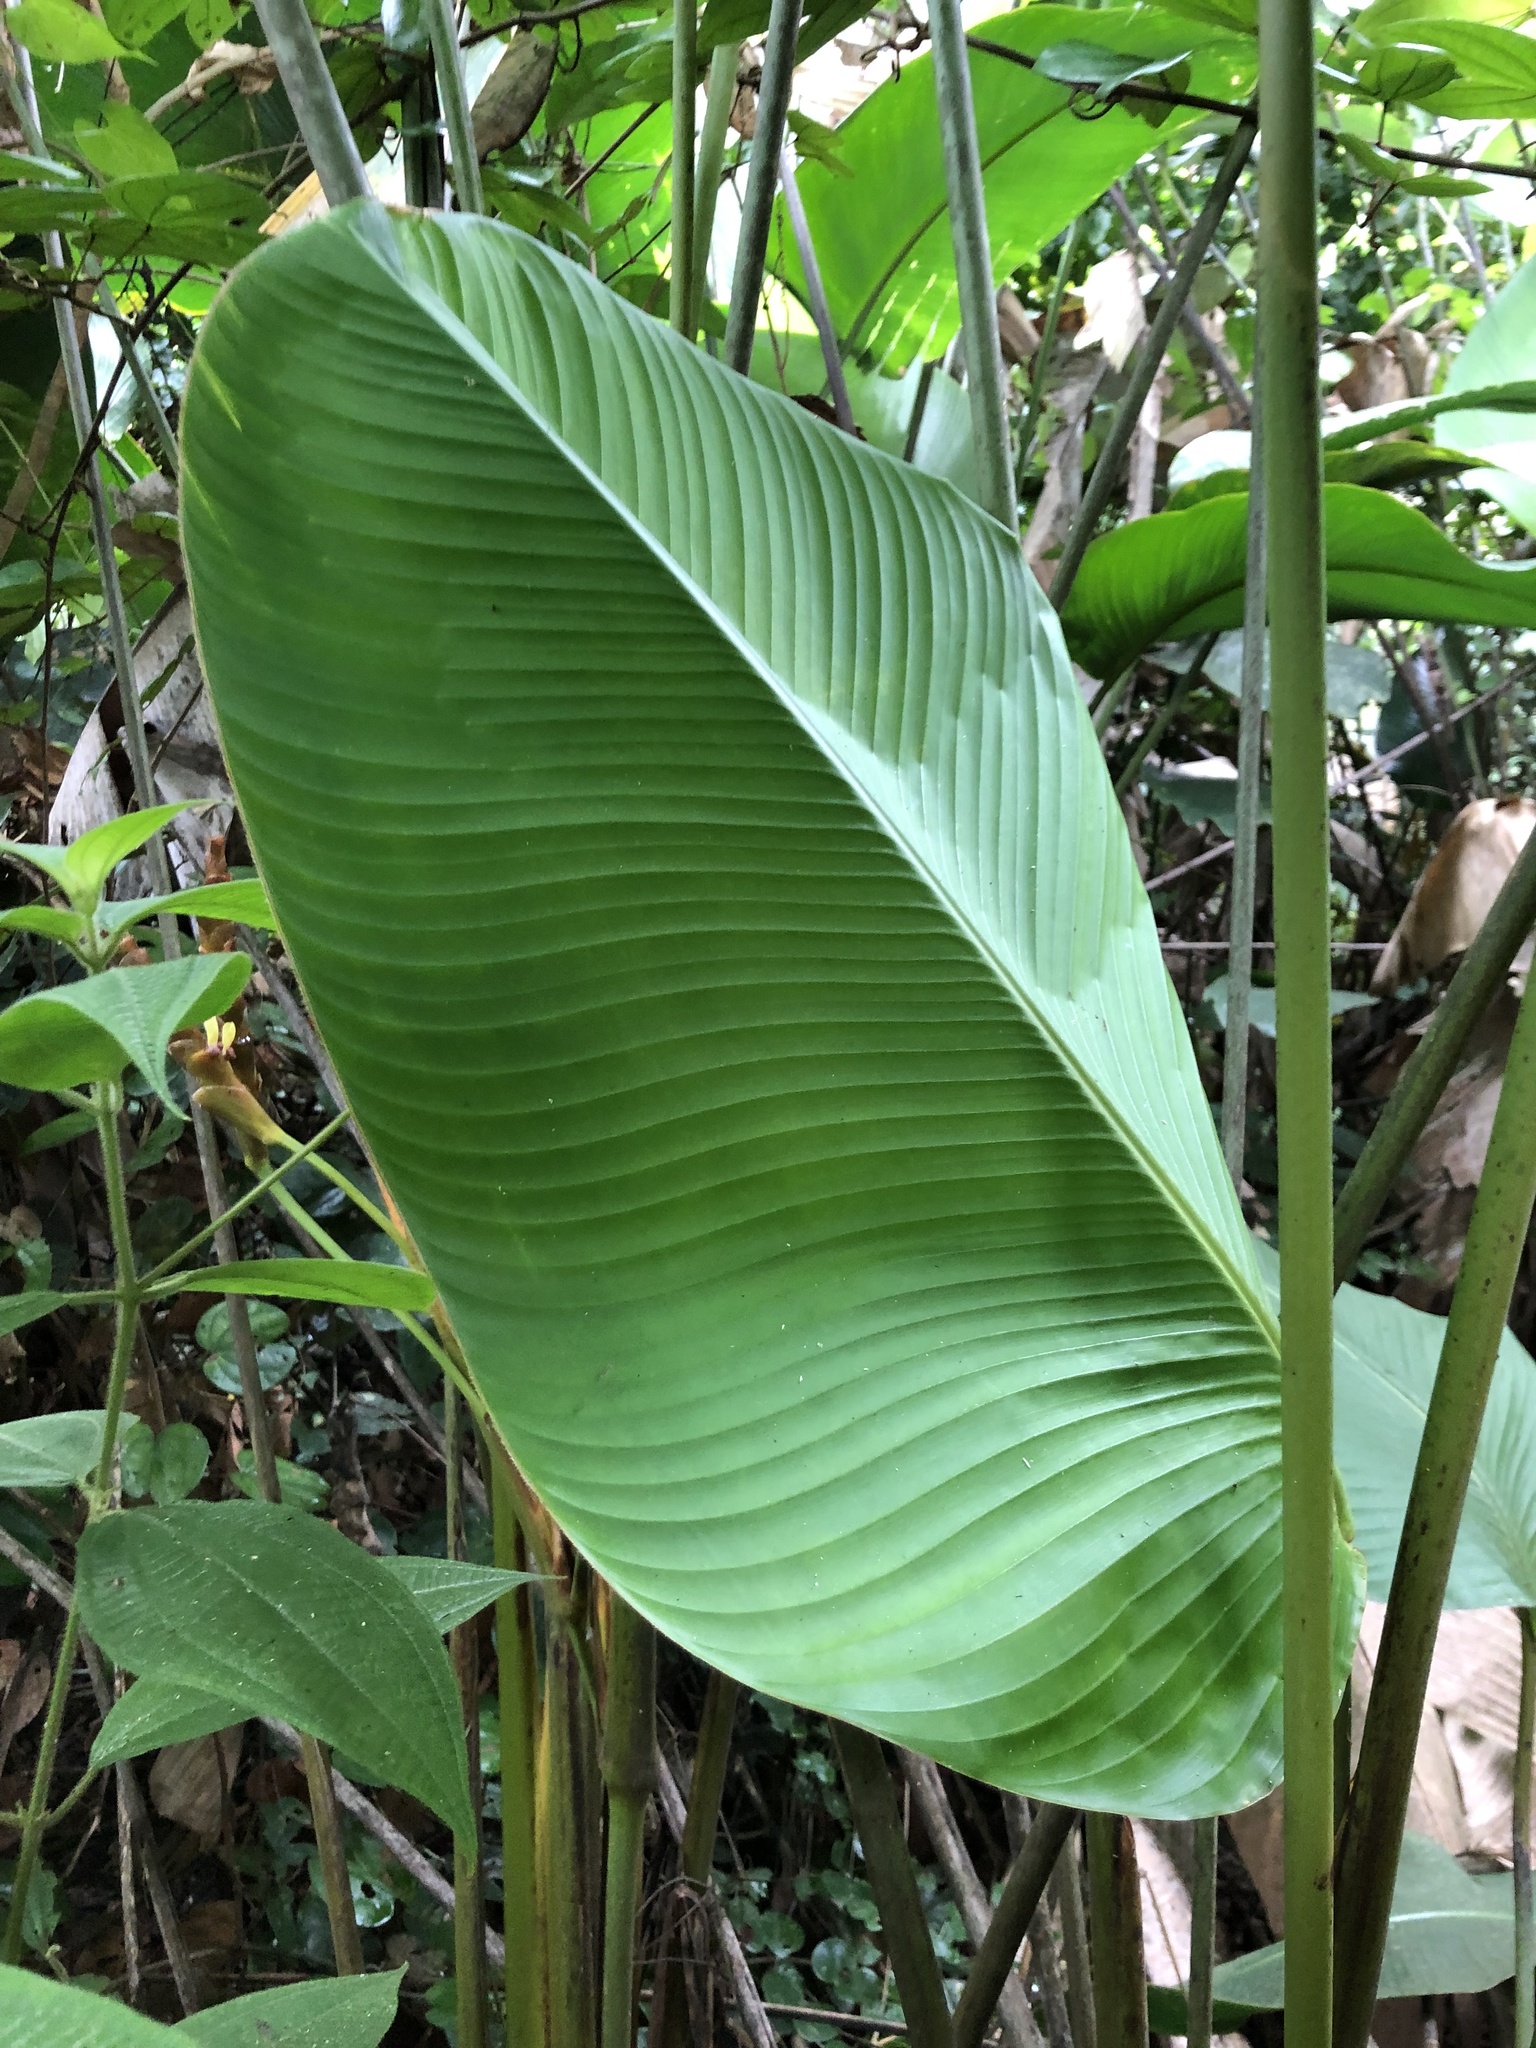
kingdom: Plantae
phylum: Tracheophyta
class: Liliopsida
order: Zingiberales
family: Marantaceae
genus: Calathea
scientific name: Calathea lutea
